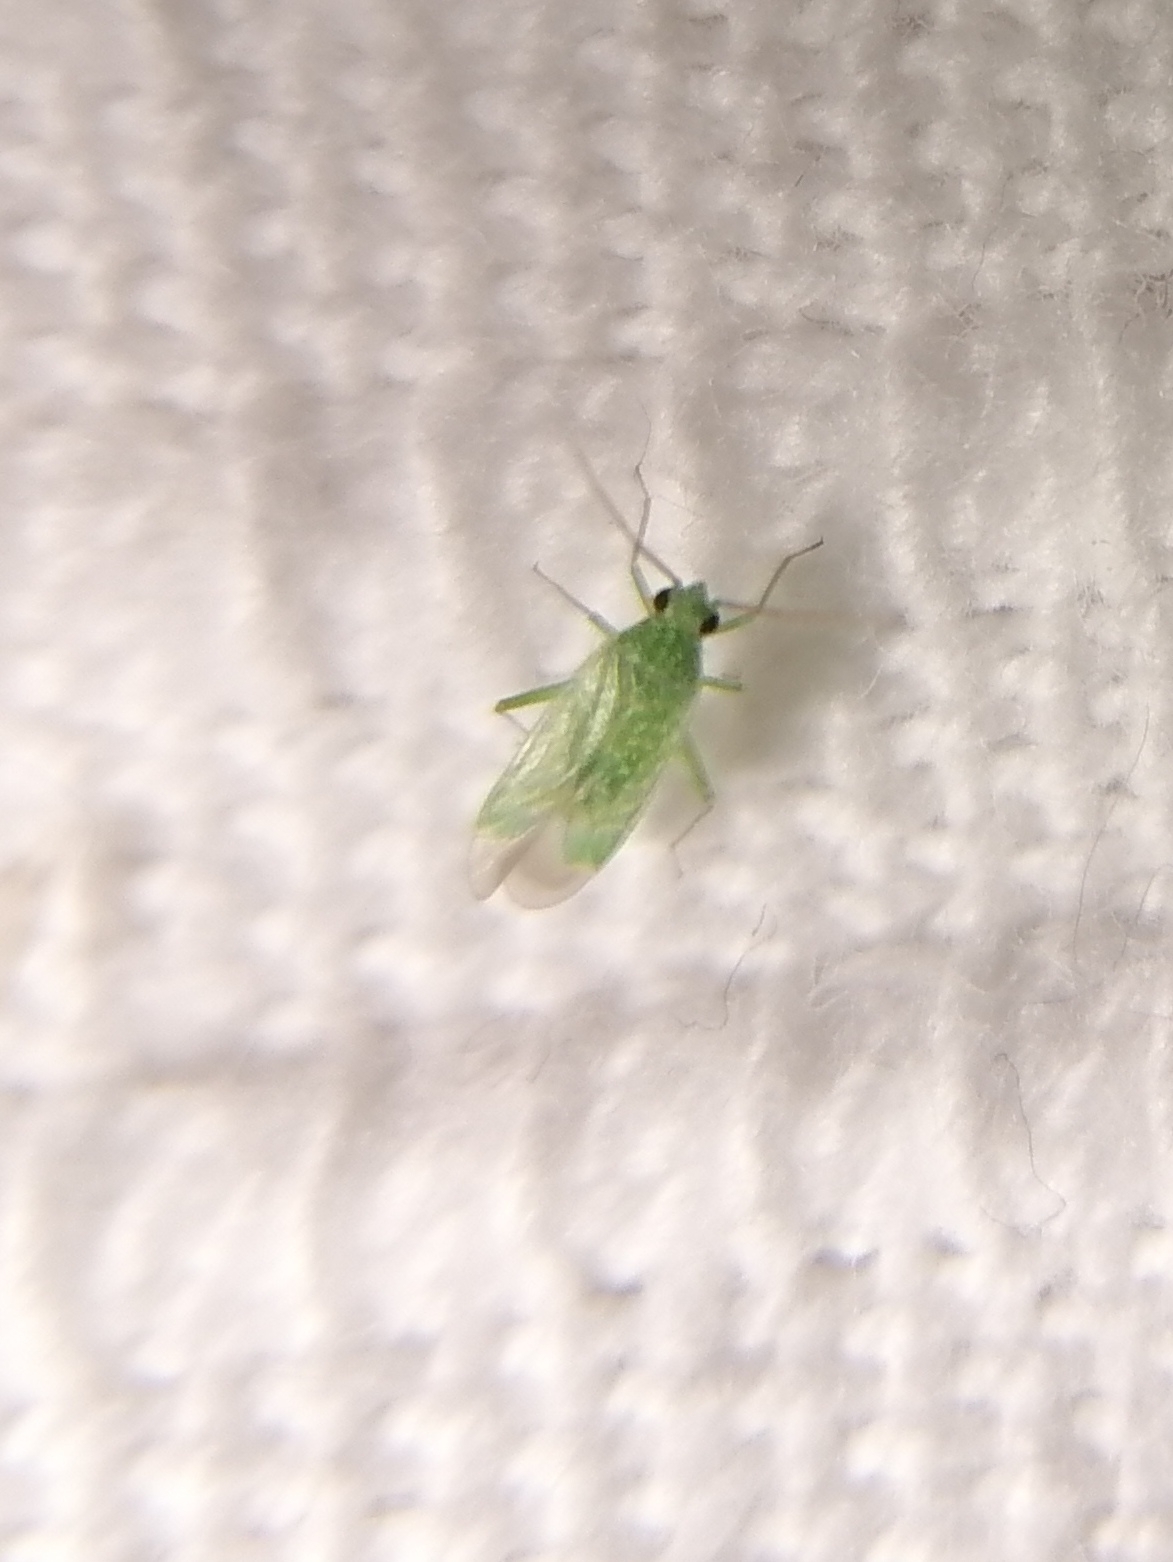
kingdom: Animalia
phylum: Arthropoda
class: Insecta
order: Hemiptera
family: Miridae
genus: Orthotylus
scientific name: Orthotylus flavosparsus
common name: Plant bug
